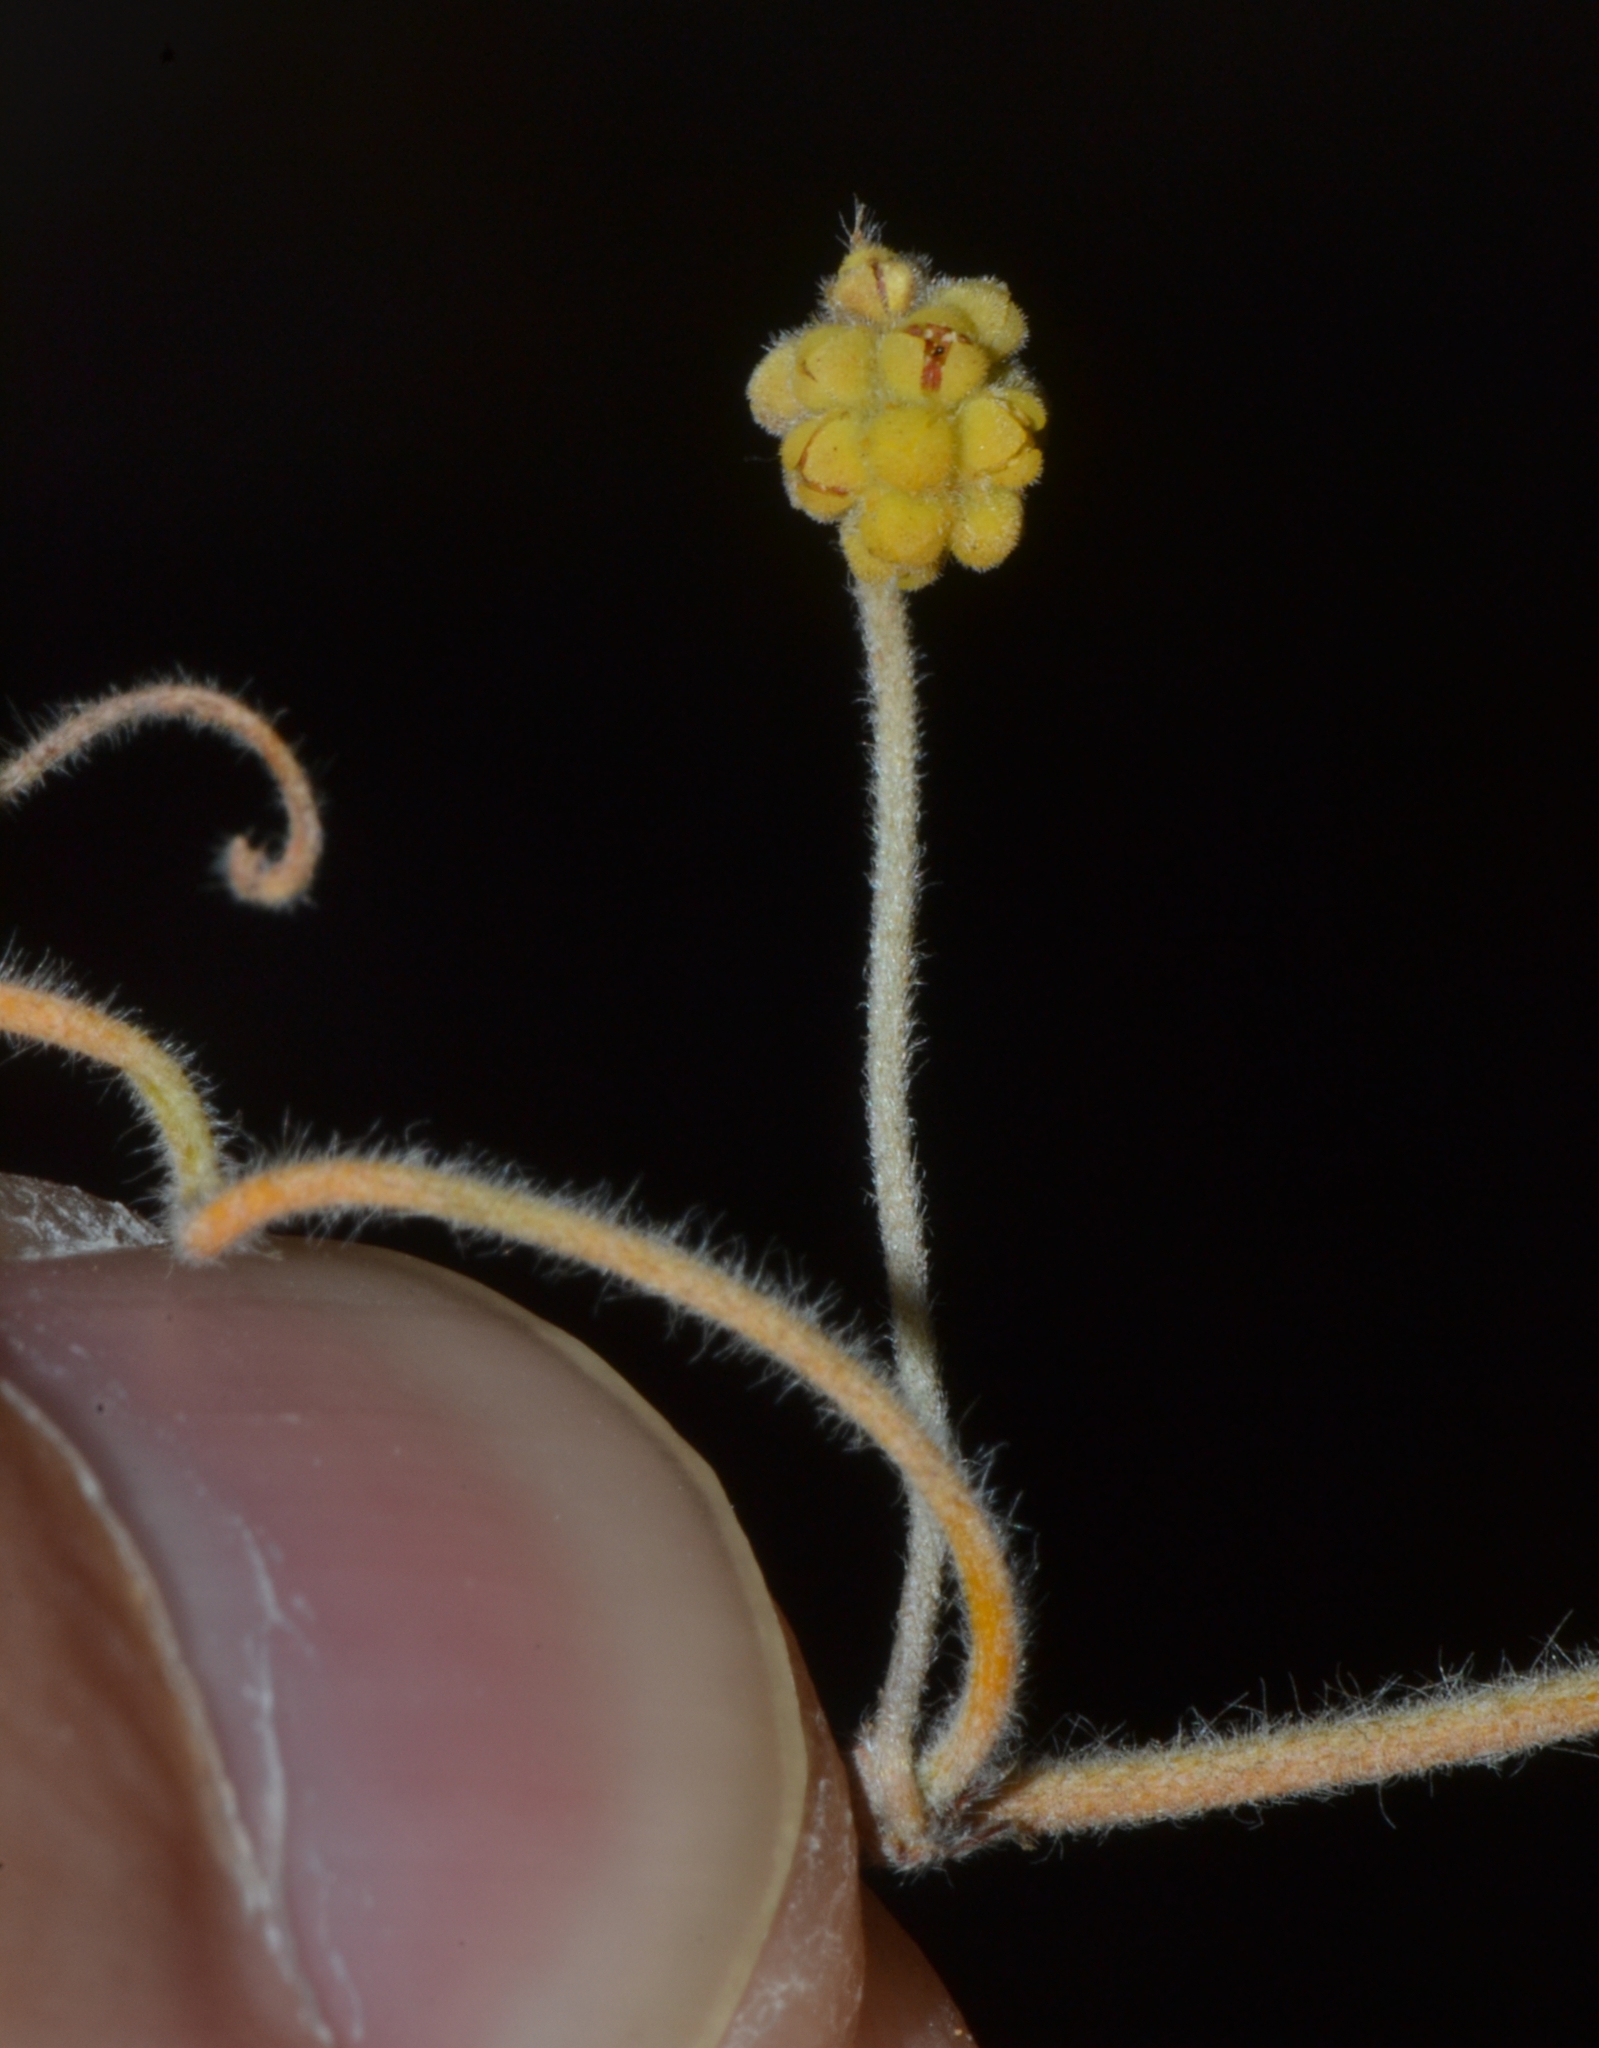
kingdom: Plantae
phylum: Tracheophyta
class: Magnoliopsida
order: Laurales
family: Lauraceae
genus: Cassytha
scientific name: Cassytha flava
